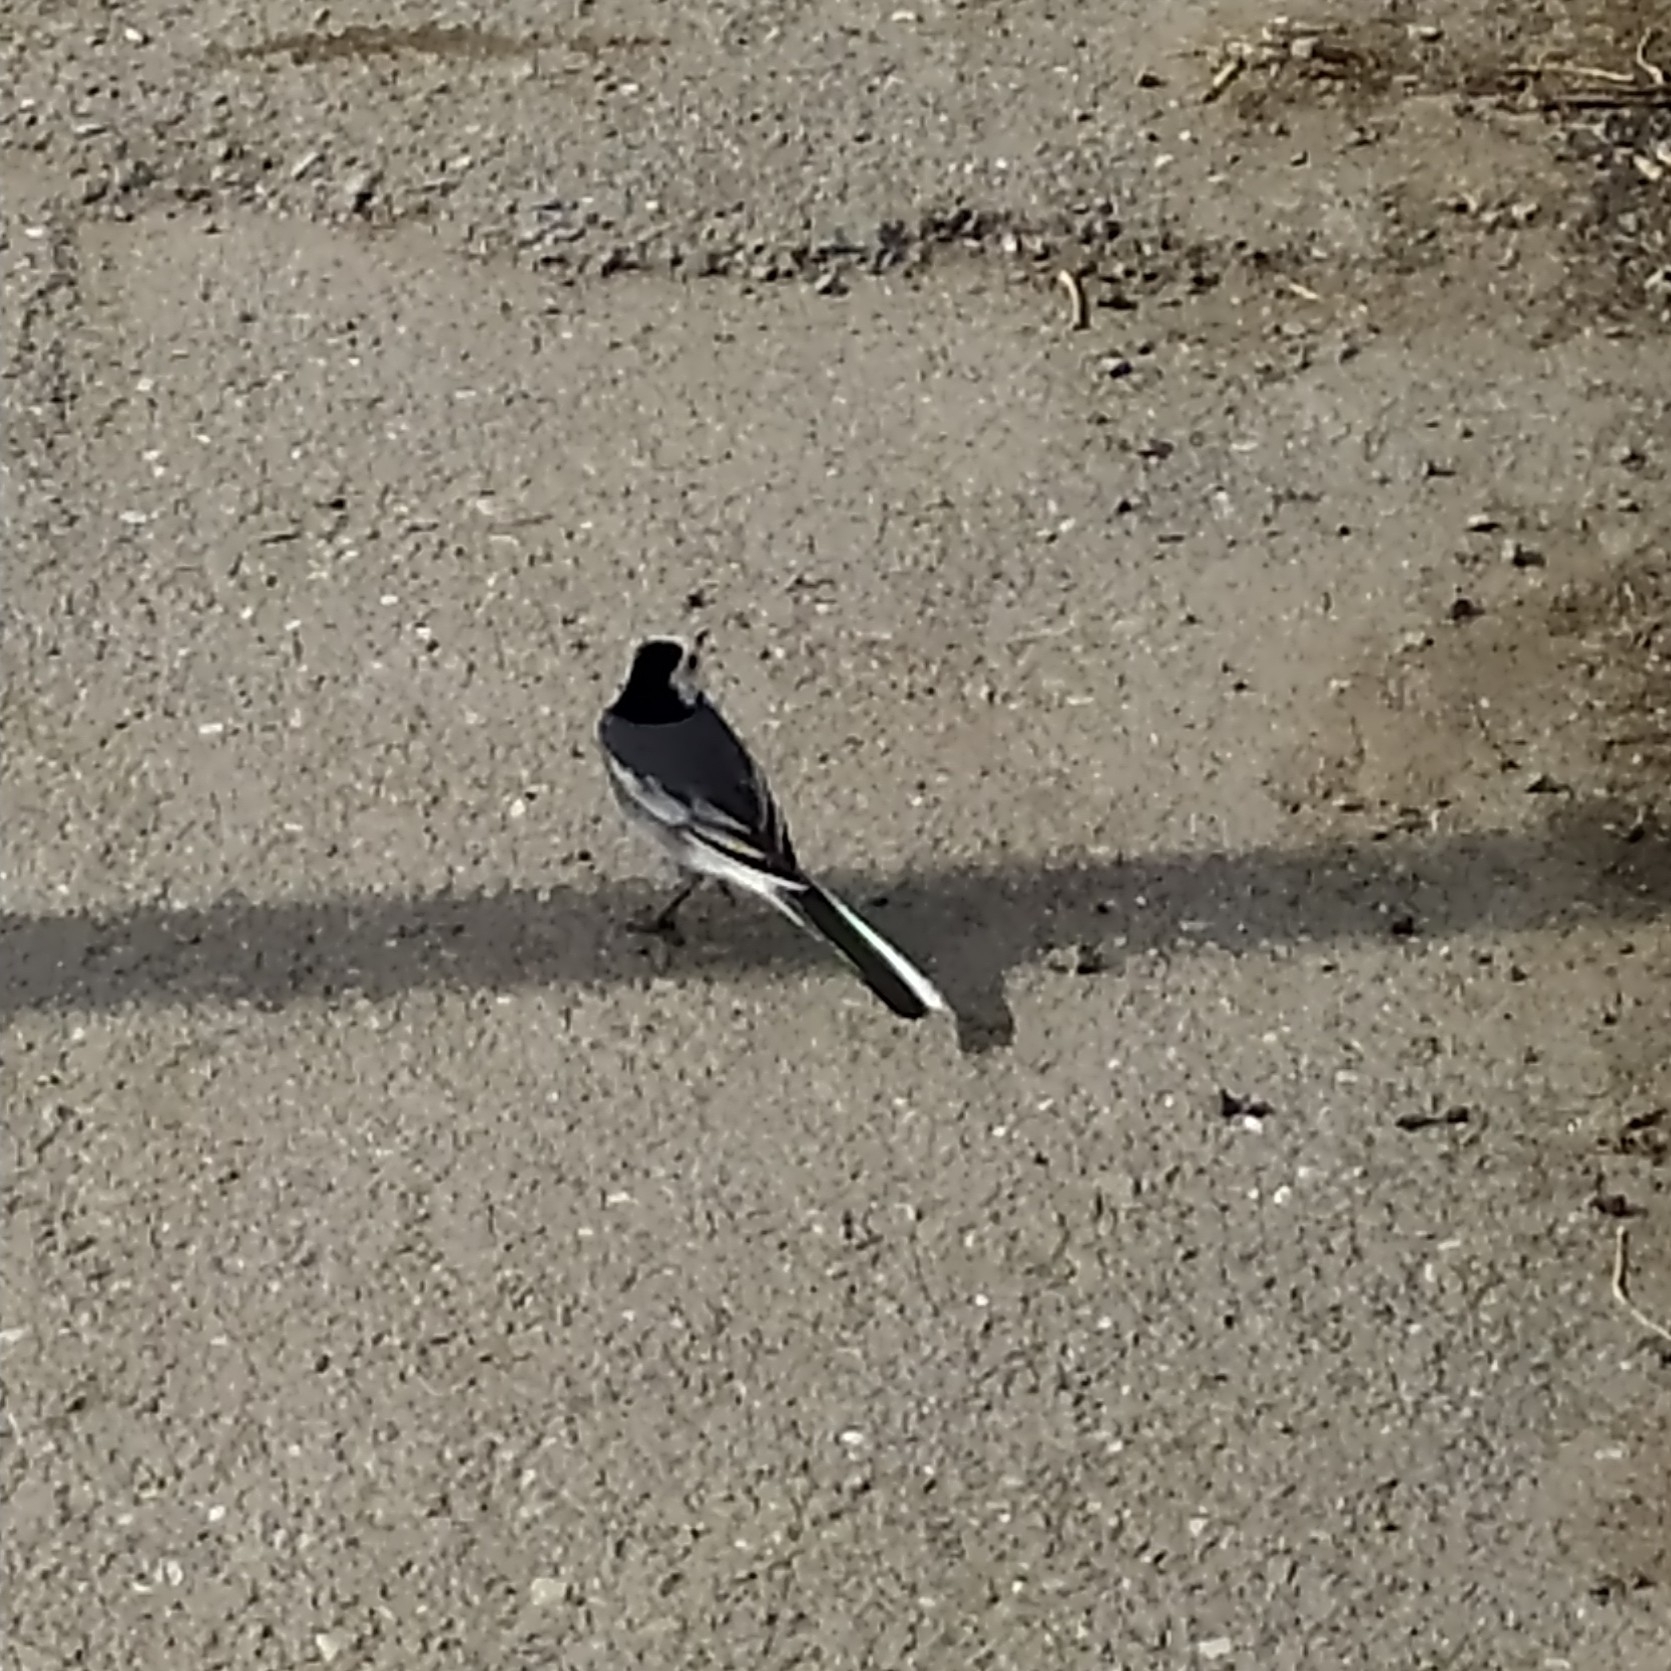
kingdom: Animalia
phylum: Chordata
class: Aves
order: Passeriformes
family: Motacillidae
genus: Motacilla
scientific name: Motacilla alba
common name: White wagtail
